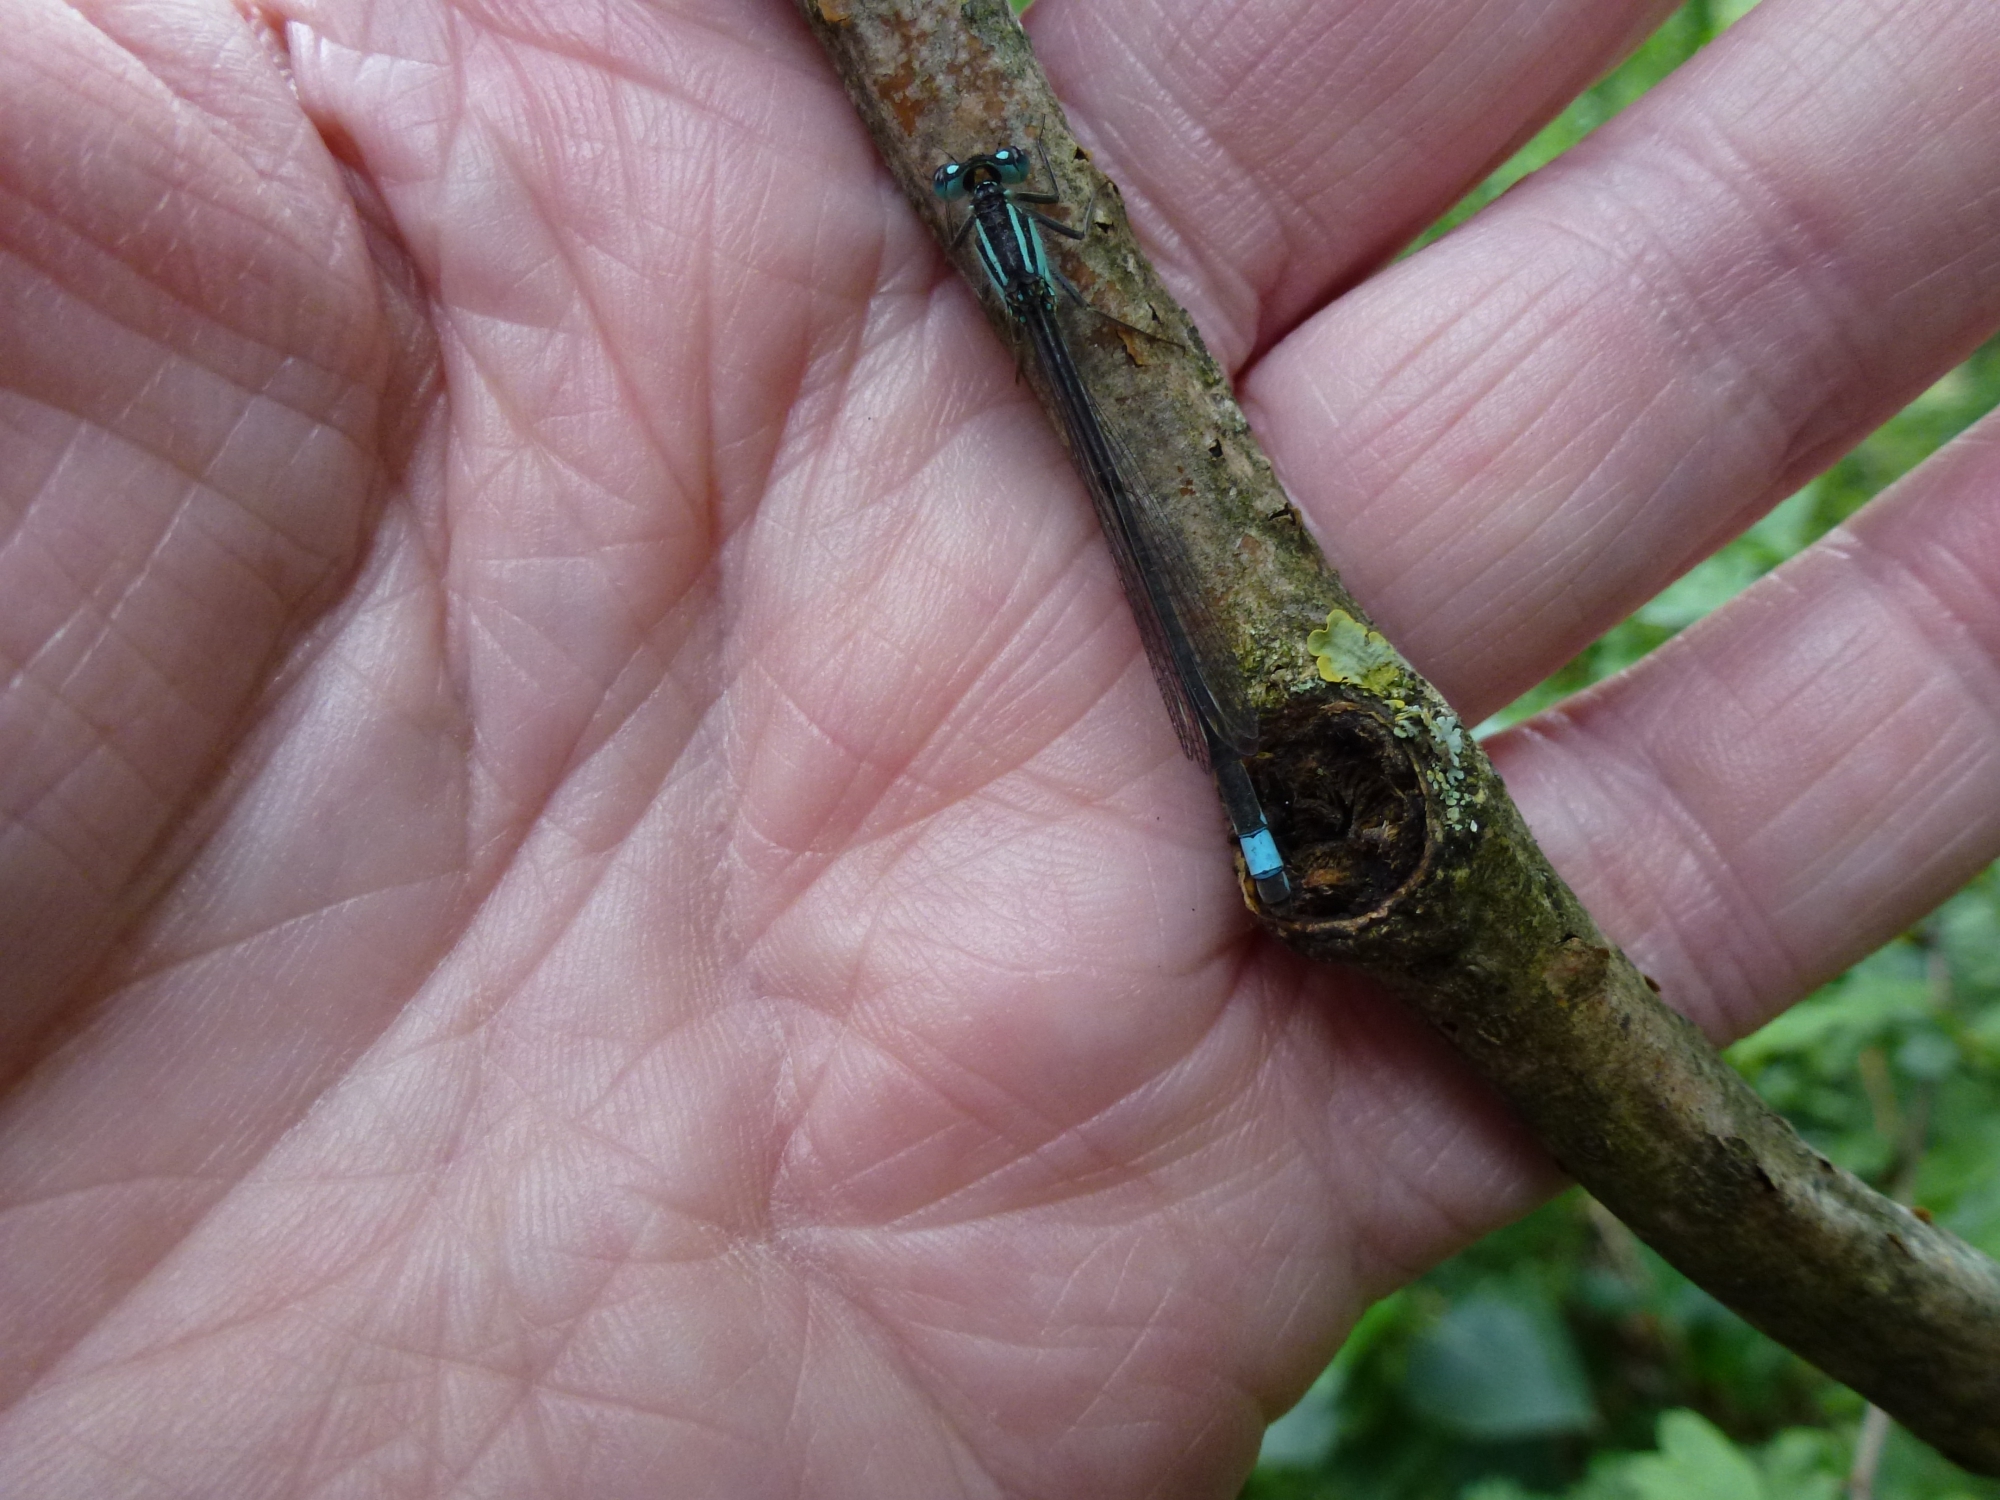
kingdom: Animalia
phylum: Arthropoda
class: Insecta
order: Odonata
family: Coenagrionidae
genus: Ischnura
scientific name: Ischnura elegans
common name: Blue-tailed damselfly
